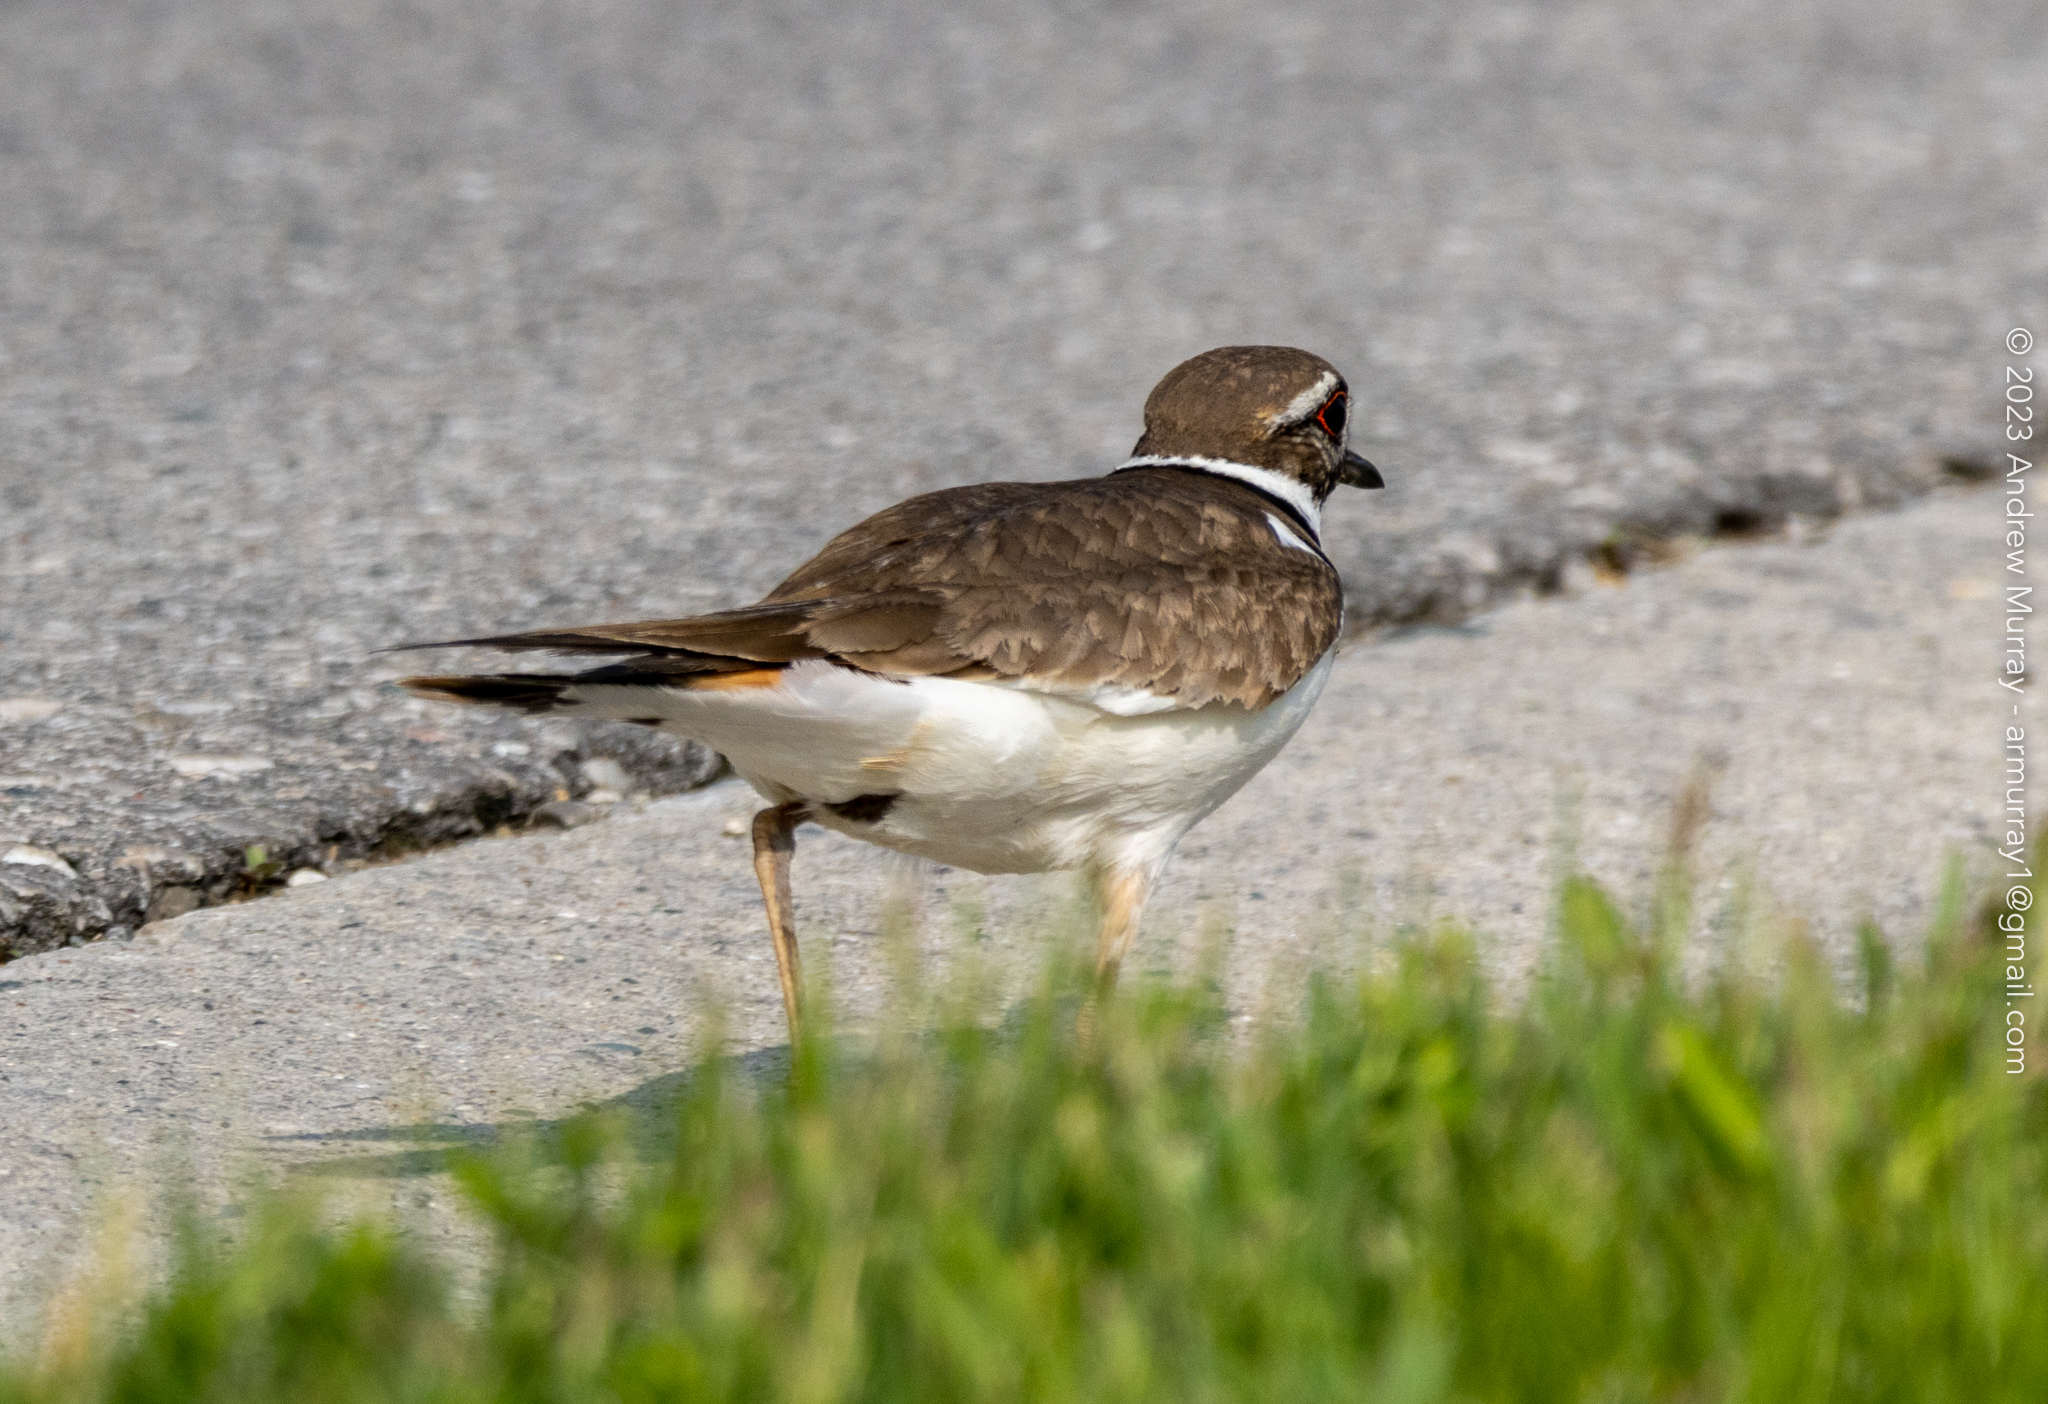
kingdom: Animalia
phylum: Chordata
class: Aves
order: Charadriiformes
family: Charadriidae
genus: Charadrius
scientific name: Charadrius vociferus
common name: Killdeer
